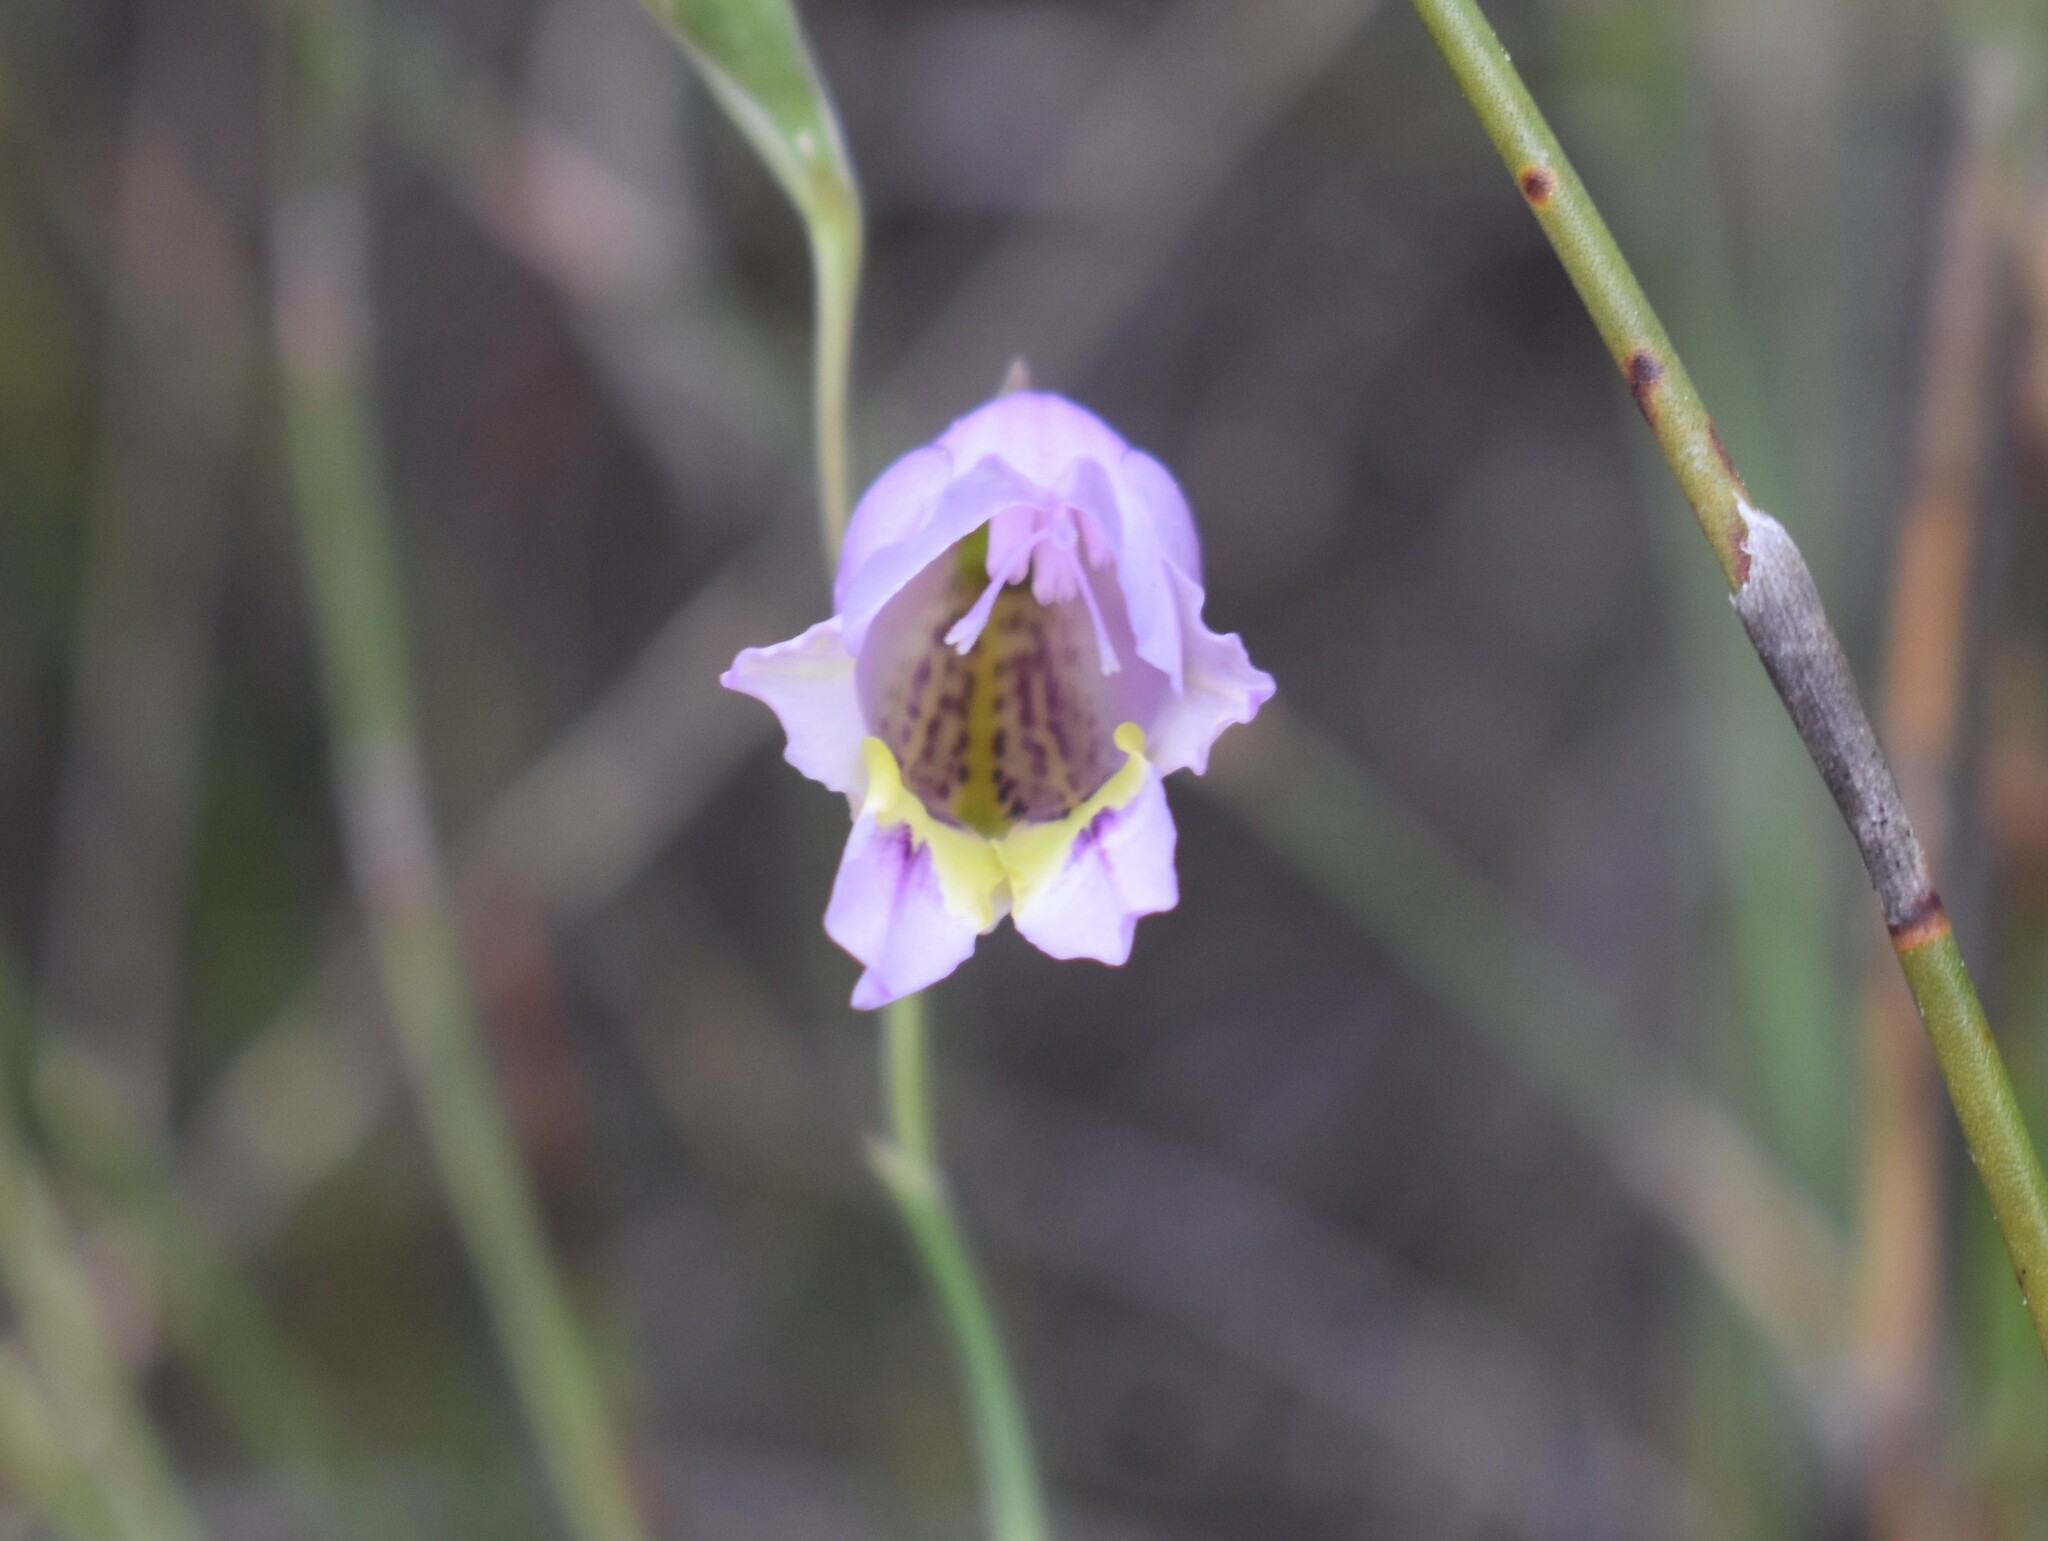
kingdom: Plantae
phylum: Tracheophyta
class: Liliopsida
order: Asparagales
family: Iridaceae
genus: Gladiolus
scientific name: Gladiolus rogersii
